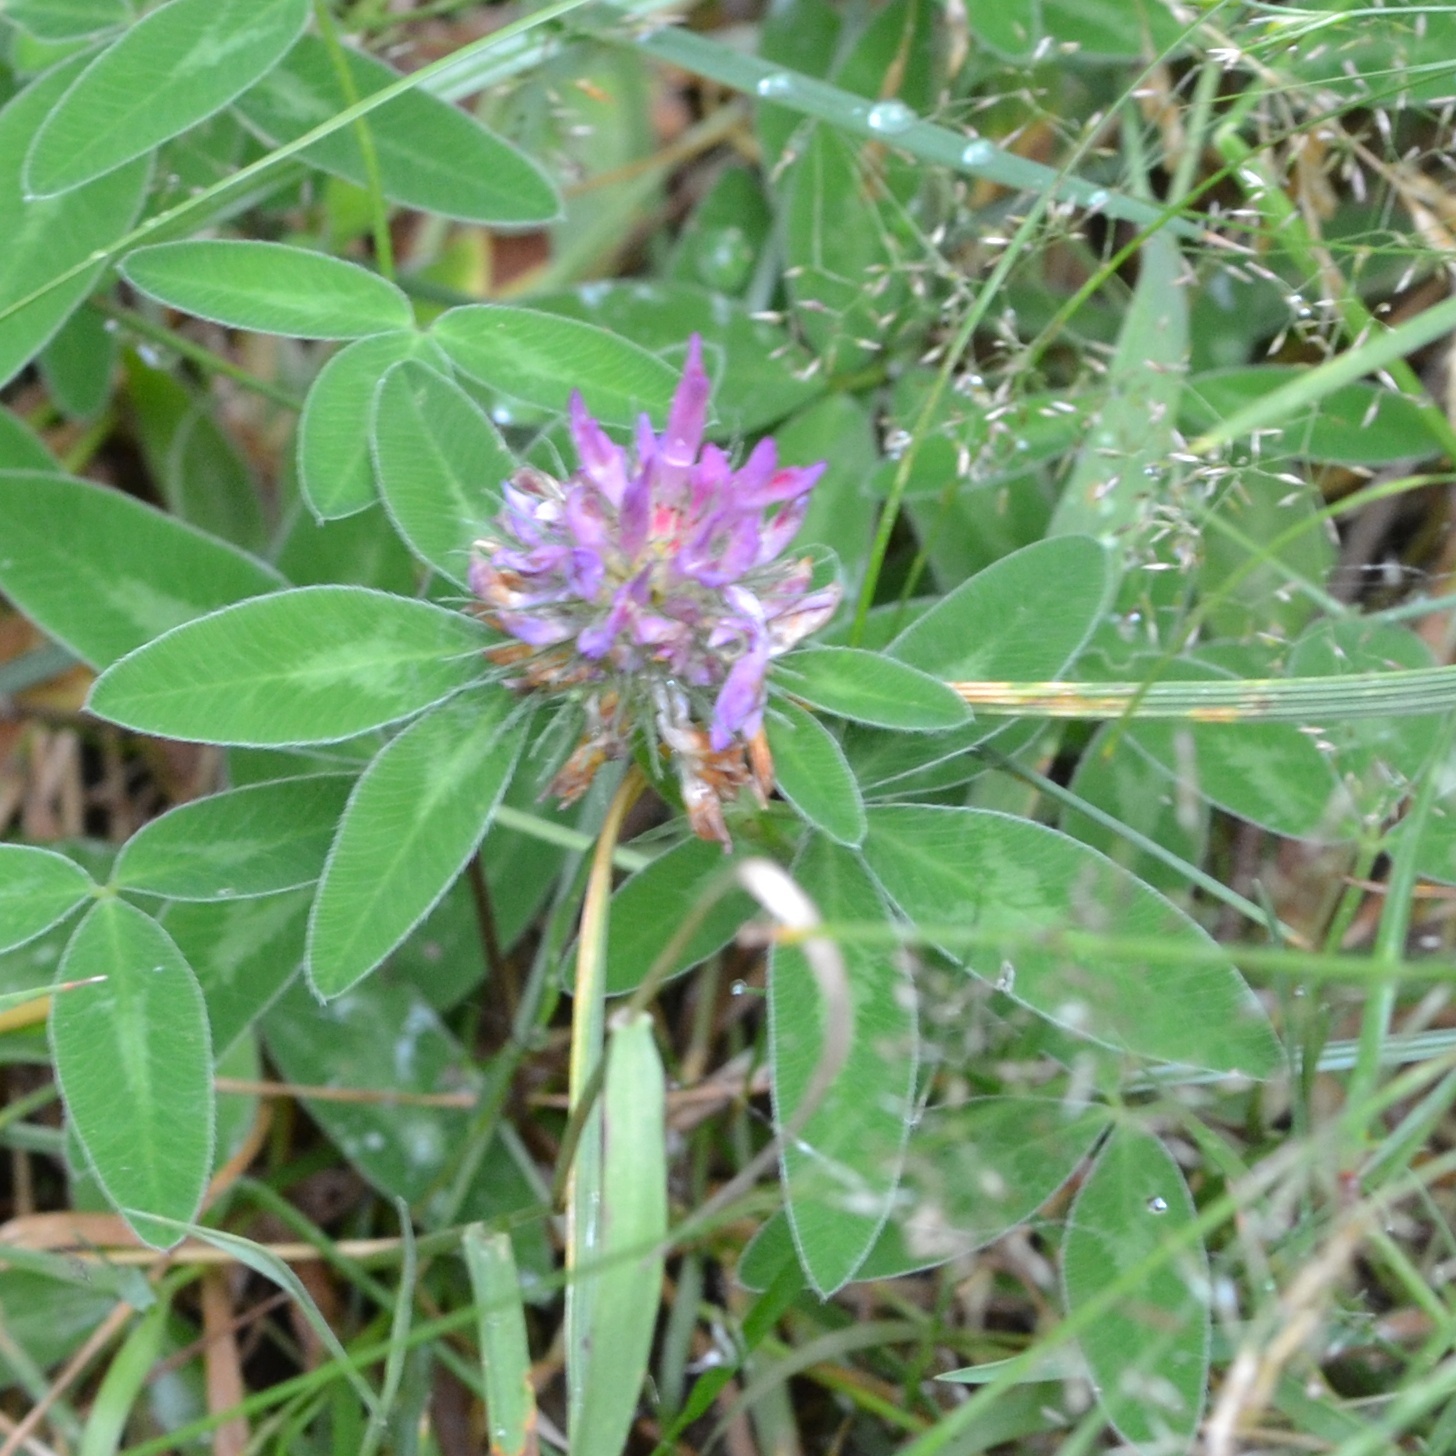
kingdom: Plantae
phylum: Tracheophyta
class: Magnoliopsida
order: Fabales
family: Fabaceae
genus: Trifolium
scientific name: Trifolium medium
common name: Zigzag clover
